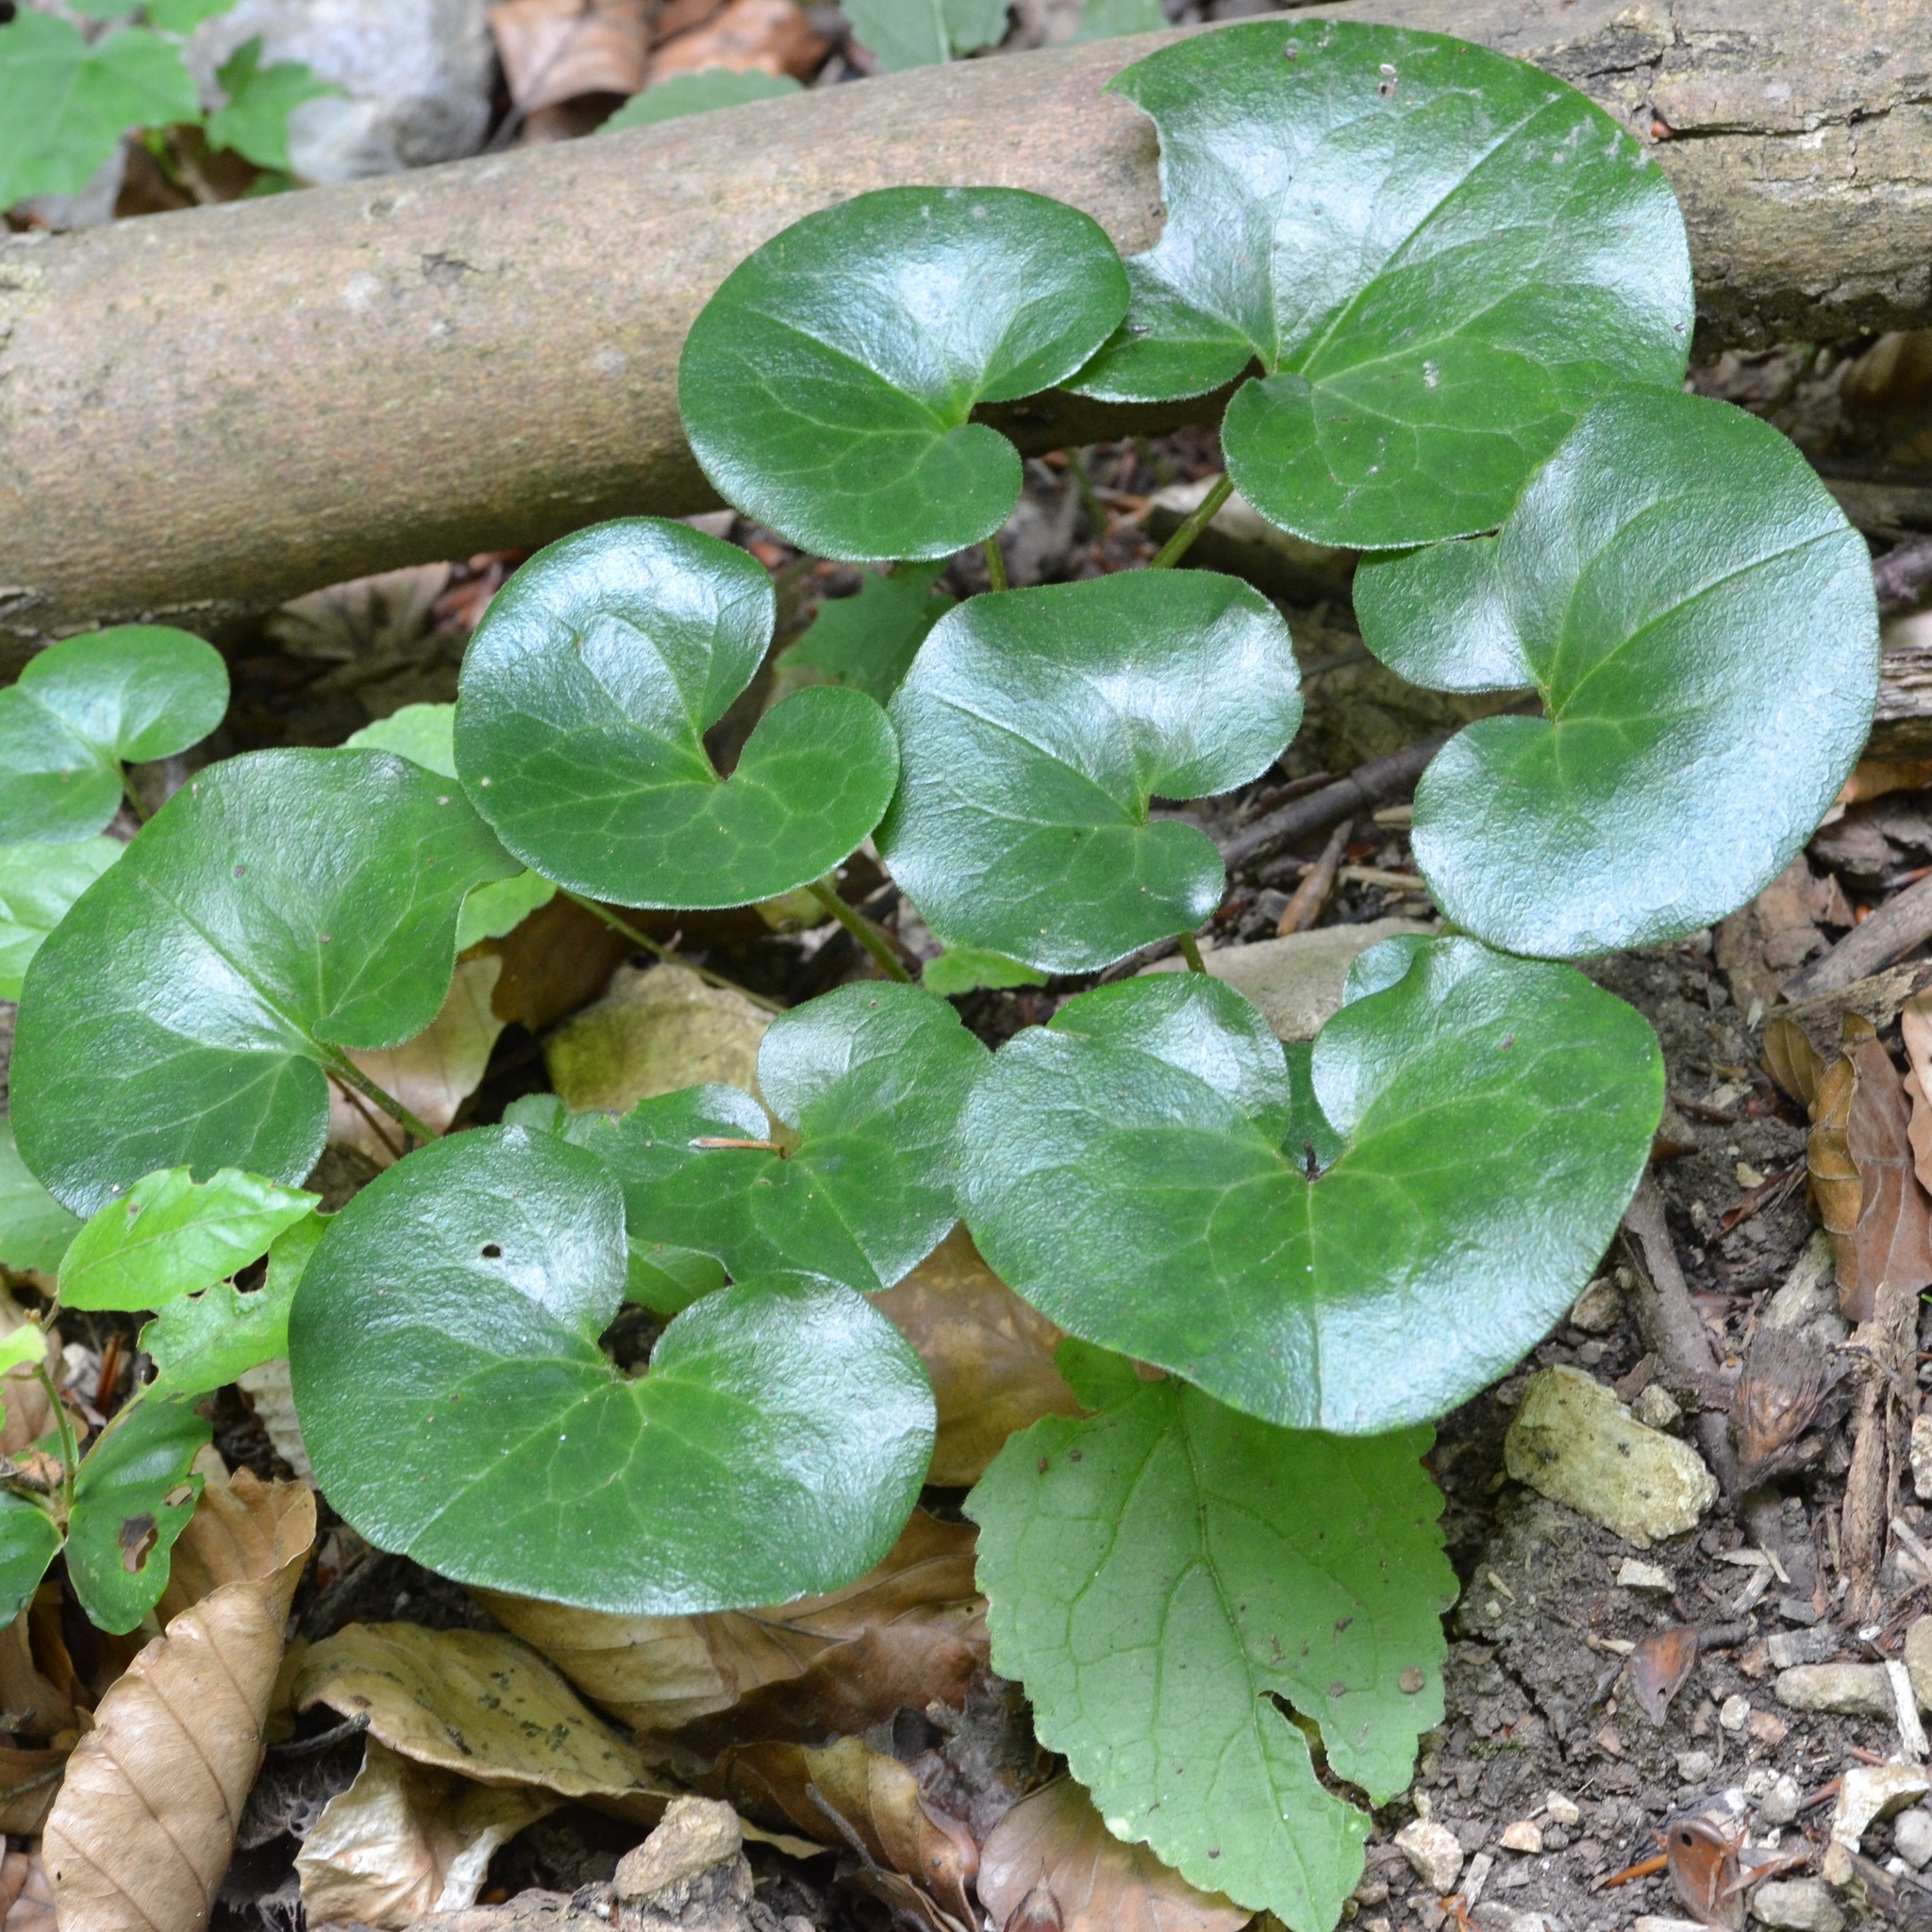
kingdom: Plantae
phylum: Tracheophyta
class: Magnoliopsida
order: Piperales
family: Aristolochiaceae
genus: Asarum
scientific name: Asarum europaeum
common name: Asarabacca
